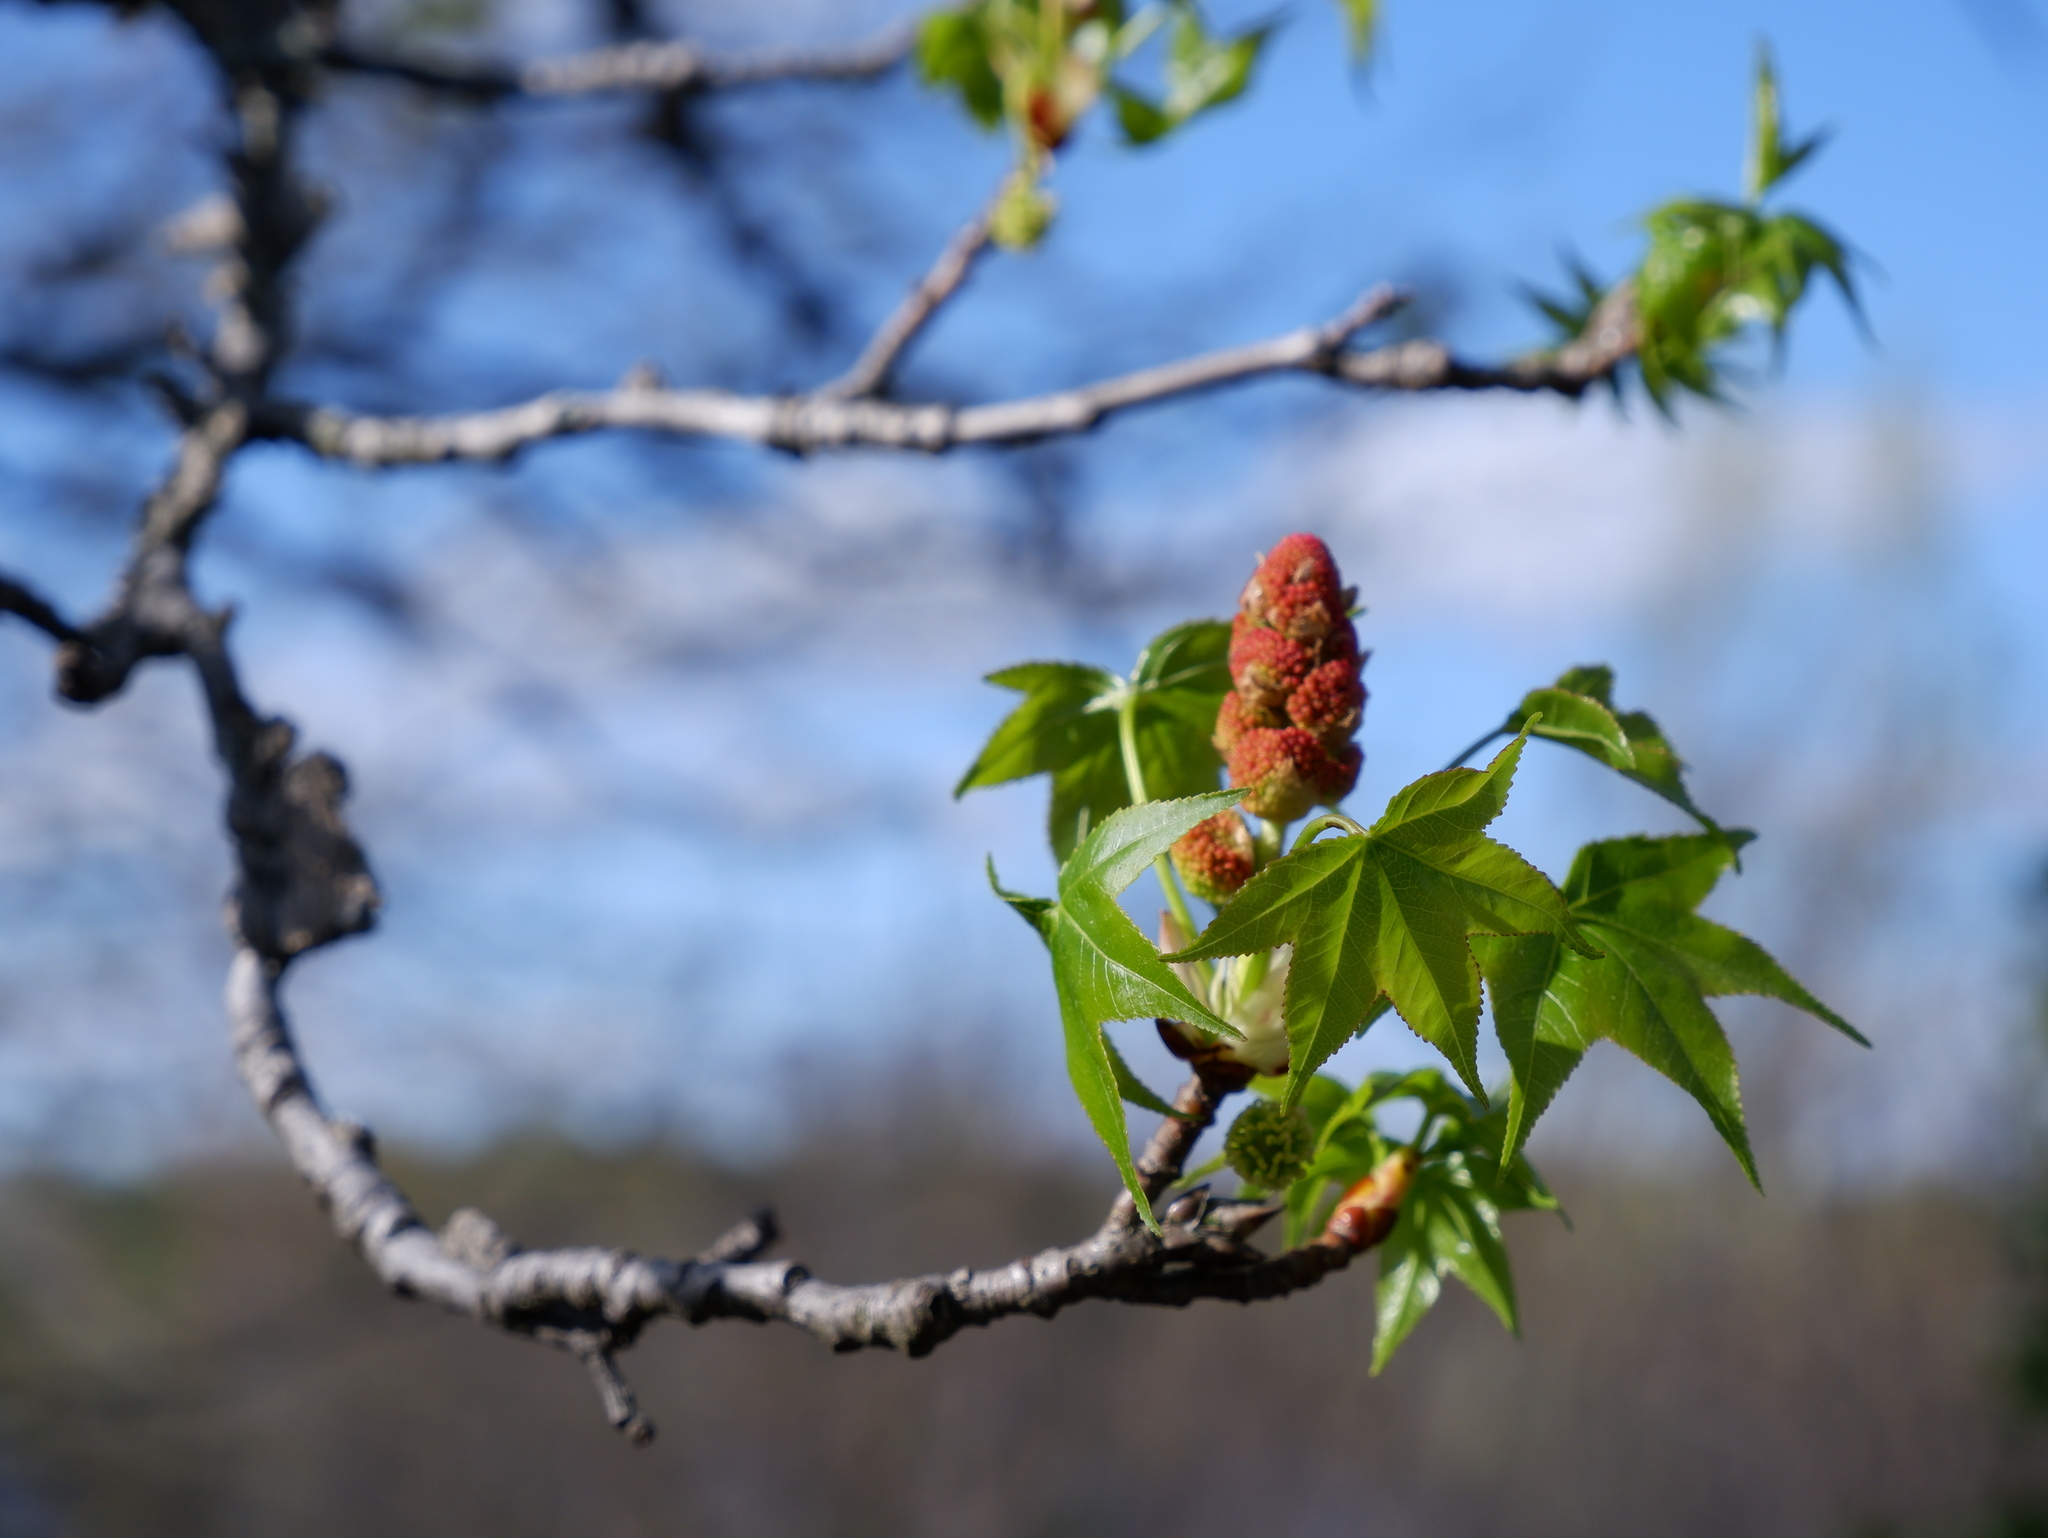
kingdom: Plantae
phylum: Tracheophyta
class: Magnoliopsida
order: Saxifragales
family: Altingiaceae
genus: Liquidambar
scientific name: Liquidambar styraciflua
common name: Sweet gum
